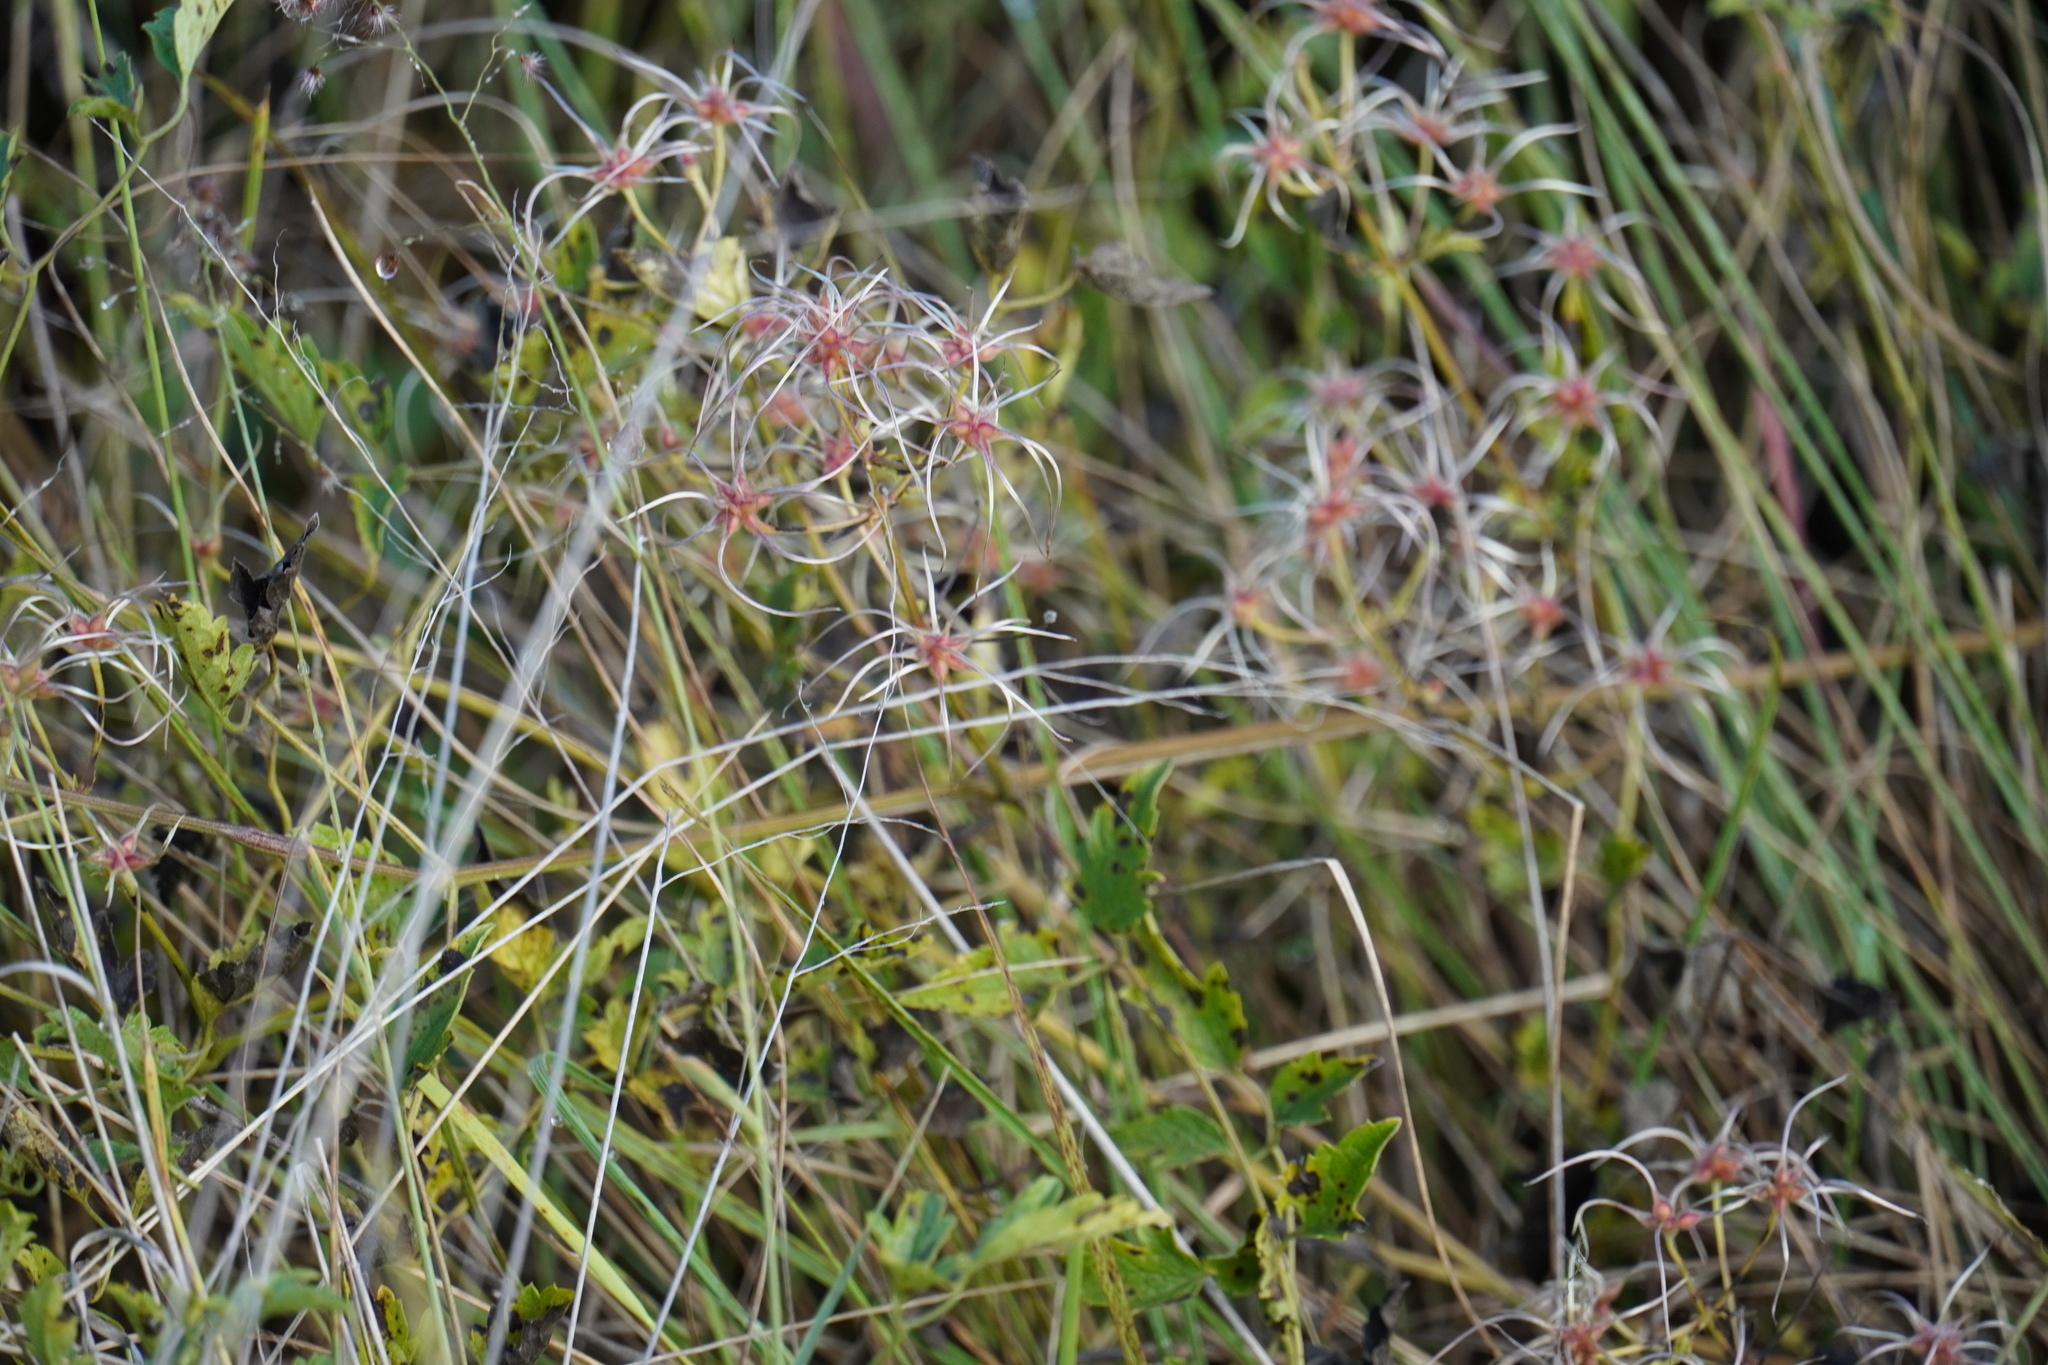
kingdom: Plantae
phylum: Tracheophyta
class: Magnoliopsida
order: Ranunculales
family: Ranunculaceae
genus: Clematis
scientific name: Clematis brachiata
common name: Traveler's-joy
